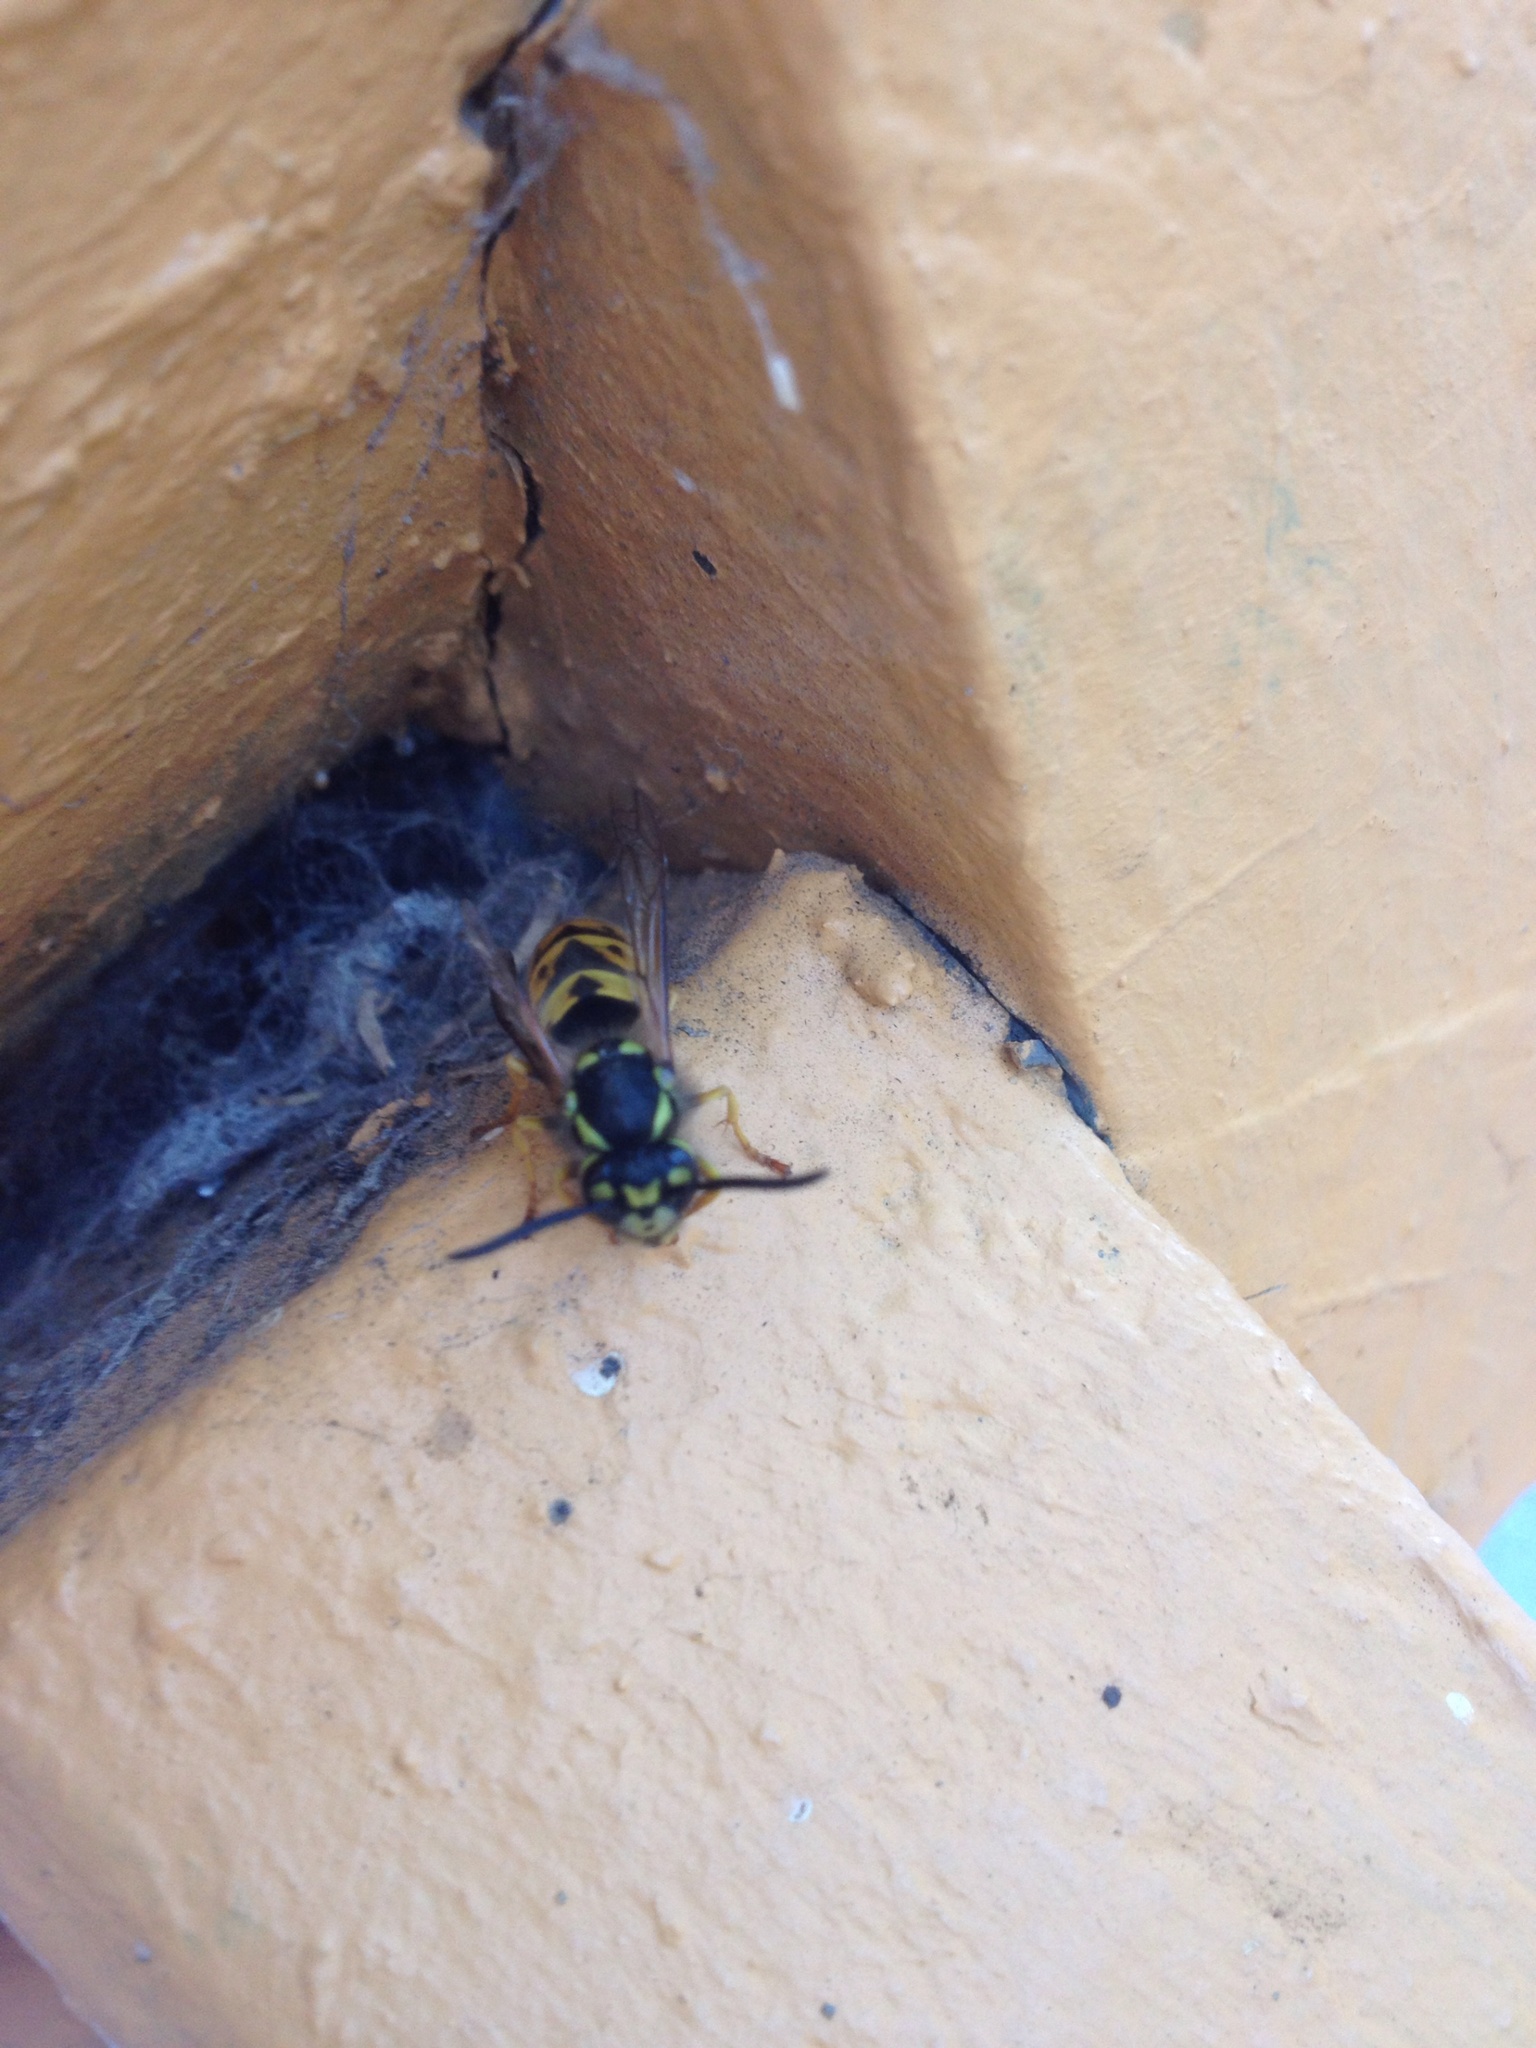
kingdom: Animalia
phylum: Arthropoda
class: Insecta
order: Hymenoptera
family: Vespidae
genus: Vespula
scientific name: Vespula germanica
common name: German wasp
